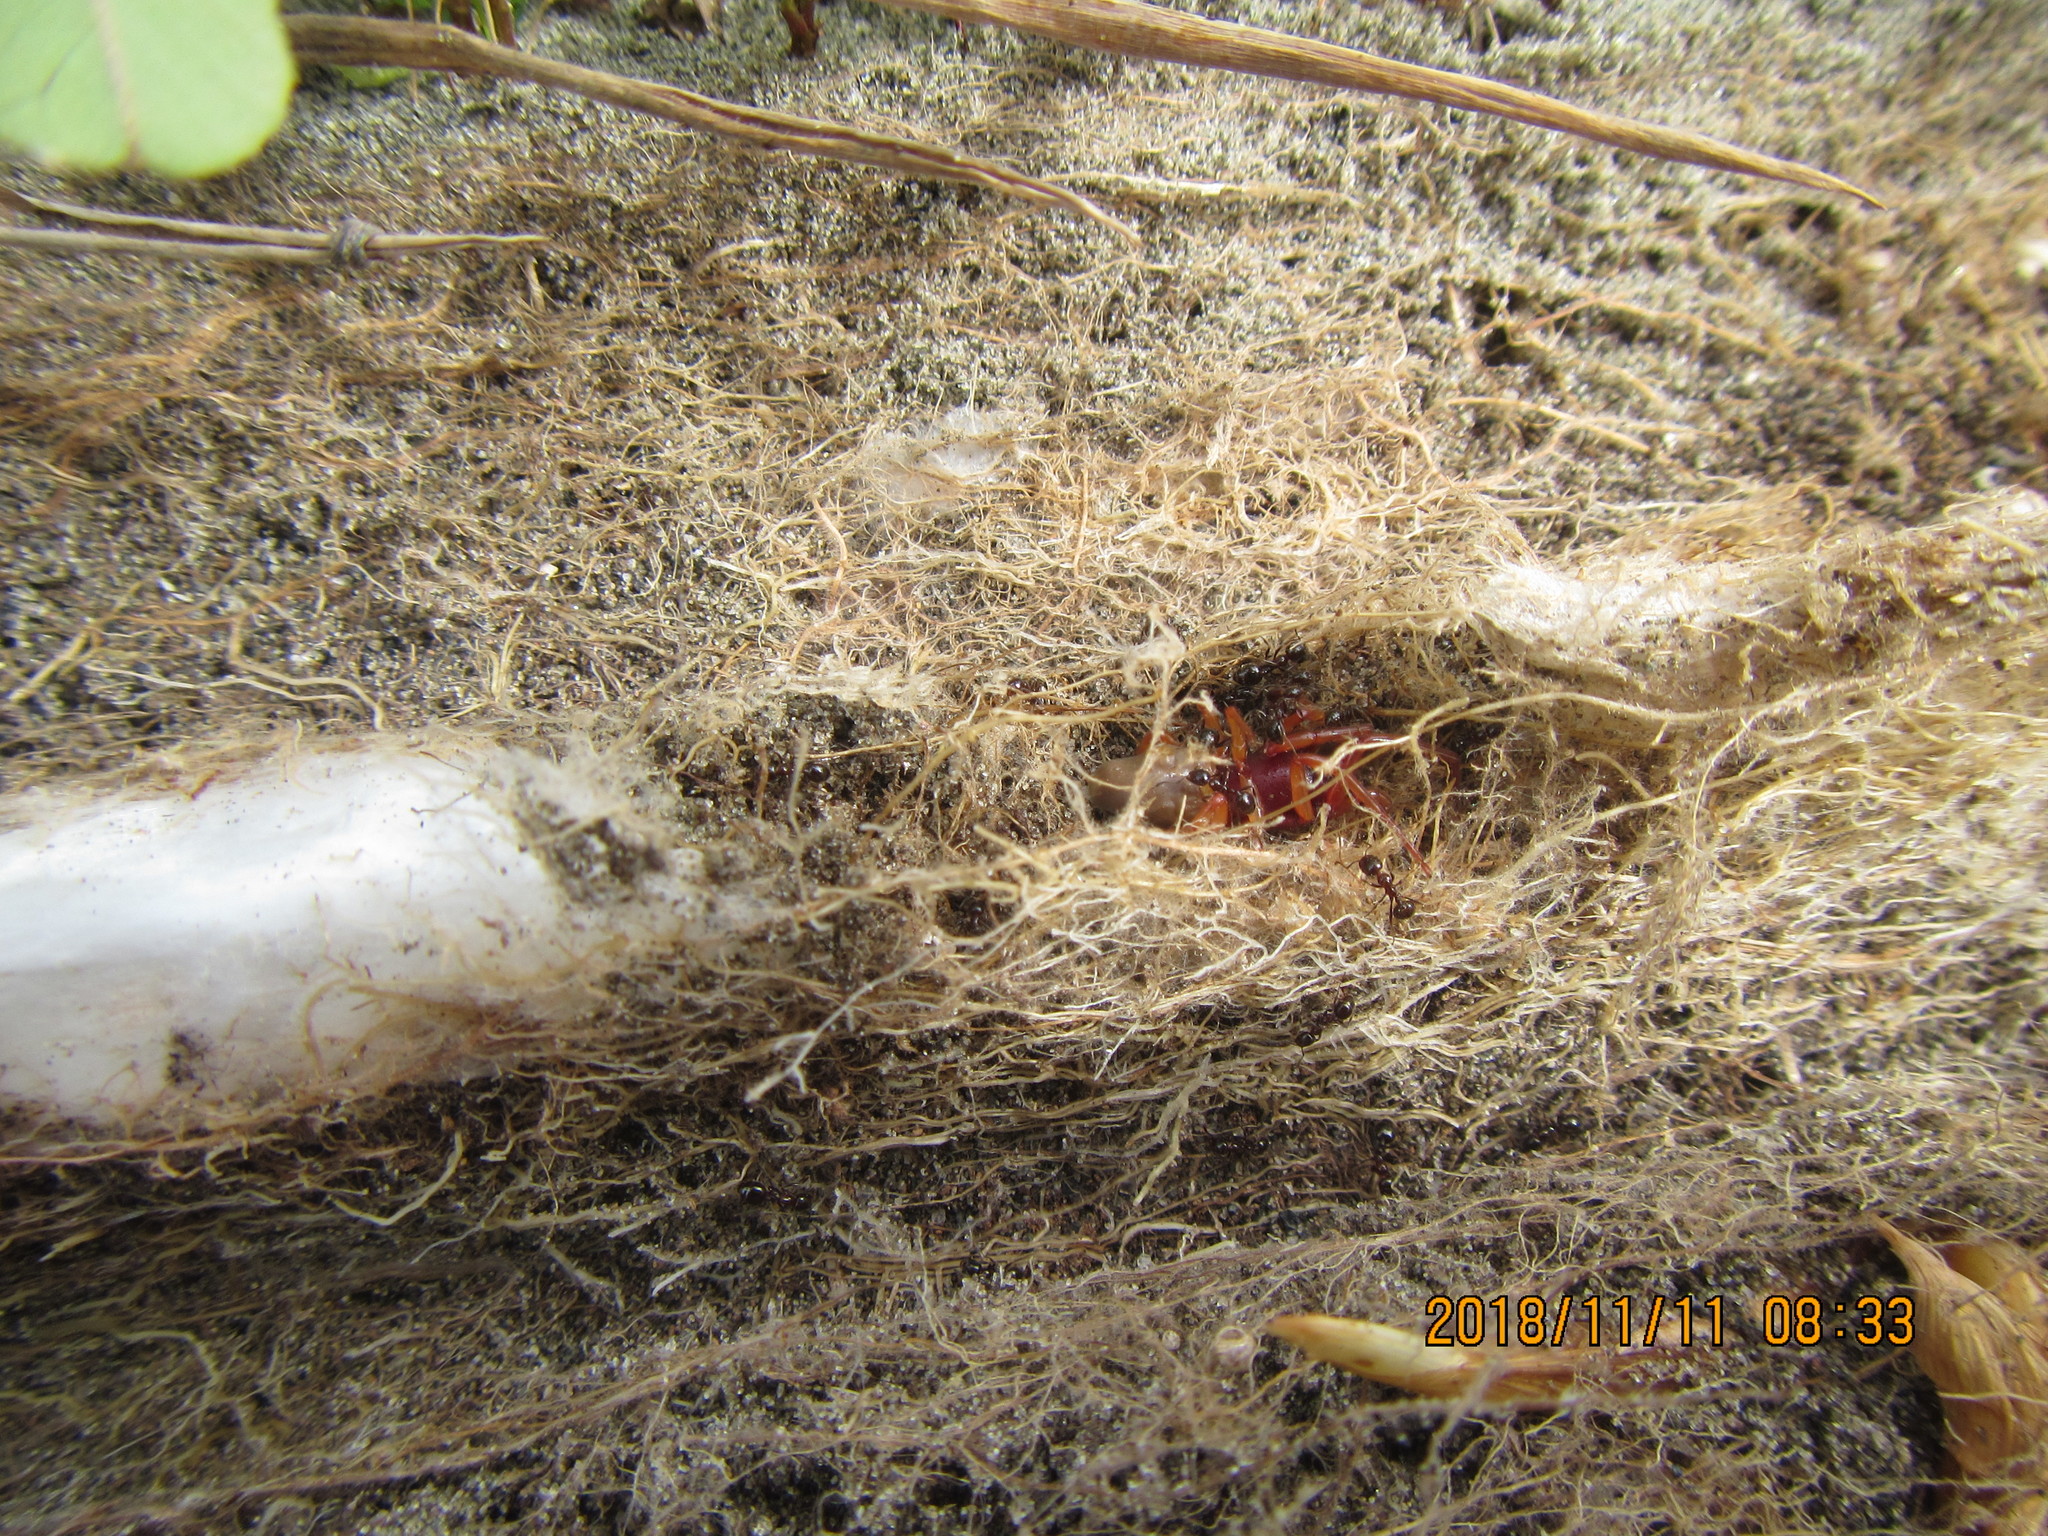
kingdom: Animalia
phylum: Arthropoda
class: Arachnida
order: Araneae
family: Dysderidae
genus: Dysdera
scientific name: Dysdera crocata
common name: Woodlouse spider
